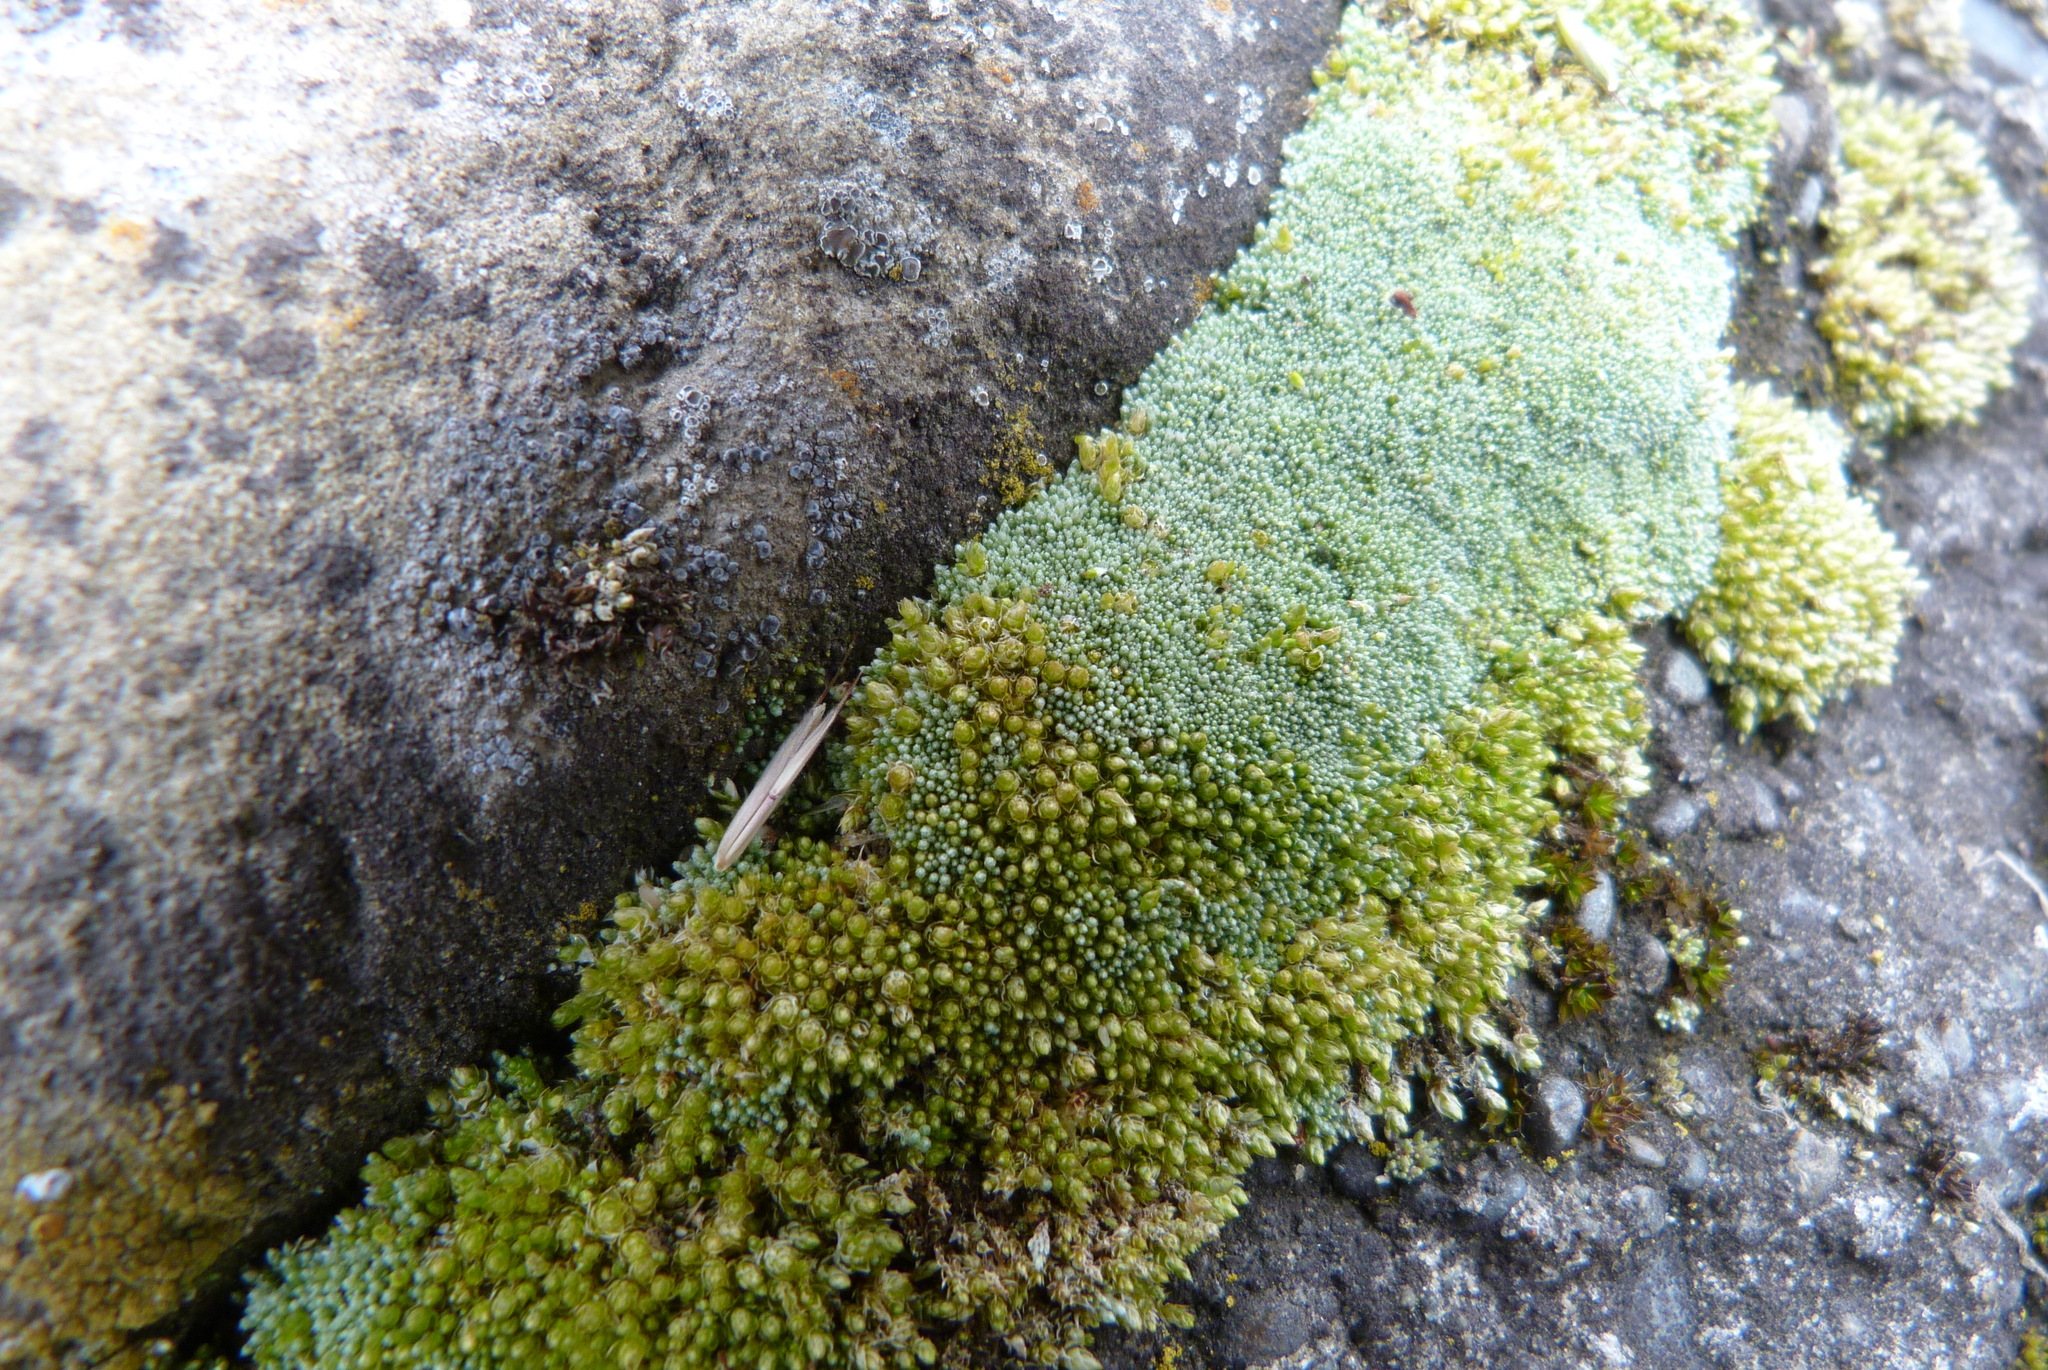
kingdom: Plantae
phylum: Bryophyta
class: Bryopsida
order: Bryales
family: Bryaceae
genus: Bryum
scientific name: Bryum argenteum
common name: Silver-moss
